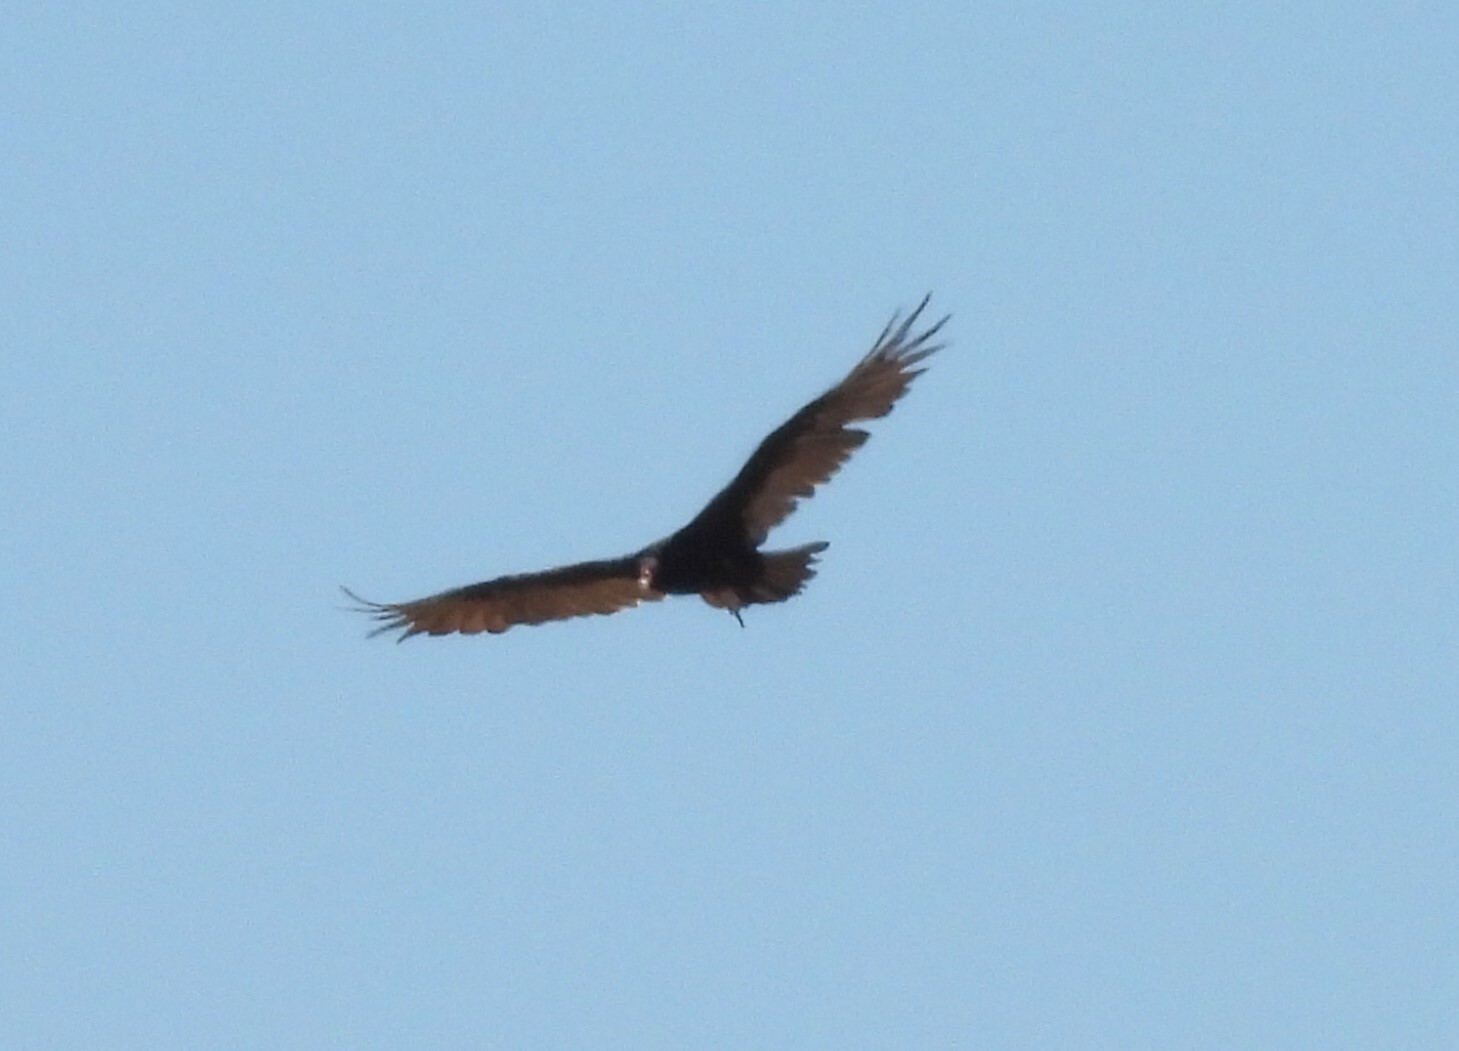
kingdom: Animalia
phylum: Chordata
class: Aves
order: Accipitriformes
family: Cathartidae
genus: Cathartes
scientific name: Cathartes aura
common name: Turkey vulture
